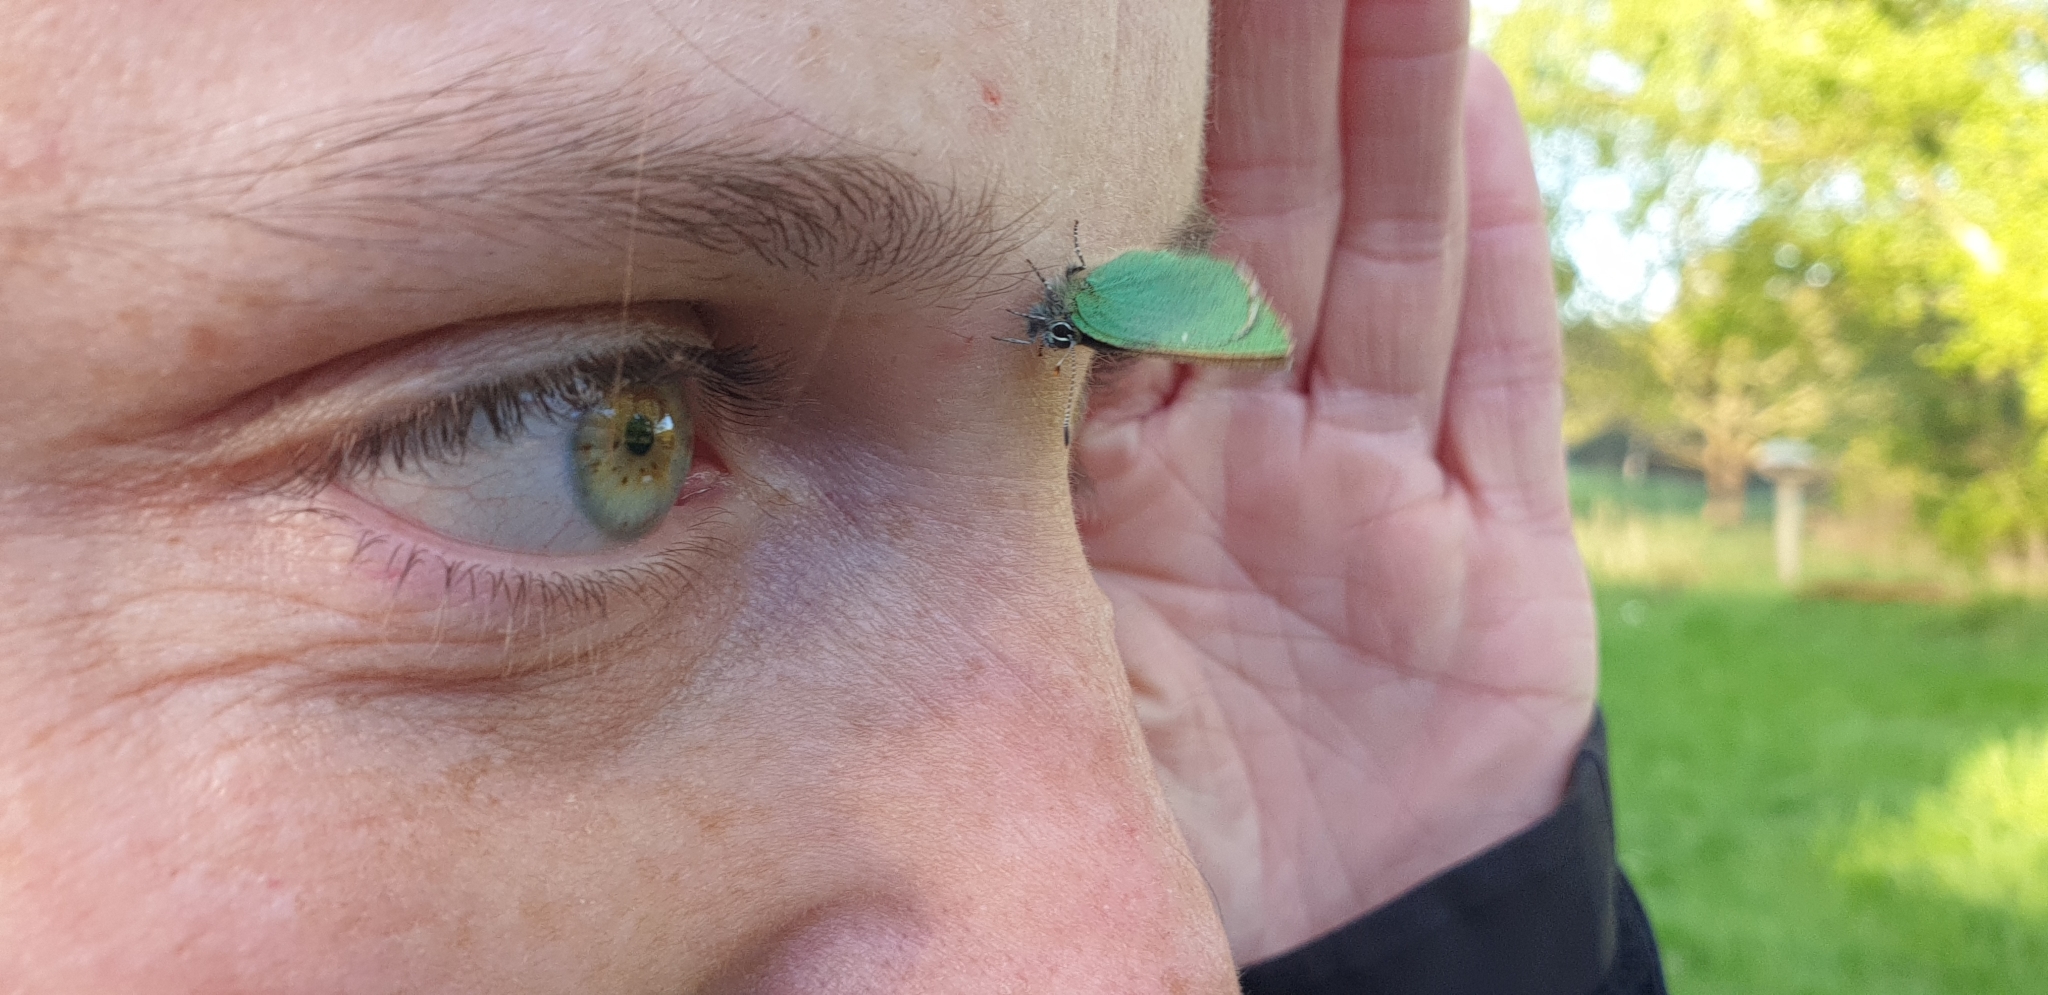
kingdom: Animalia
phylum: Arthropoda
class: Insecta
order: Lepidoptera
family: Lycaenidae
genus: Callophrys
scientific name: Callophrys rubi
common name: Green hairstreak
